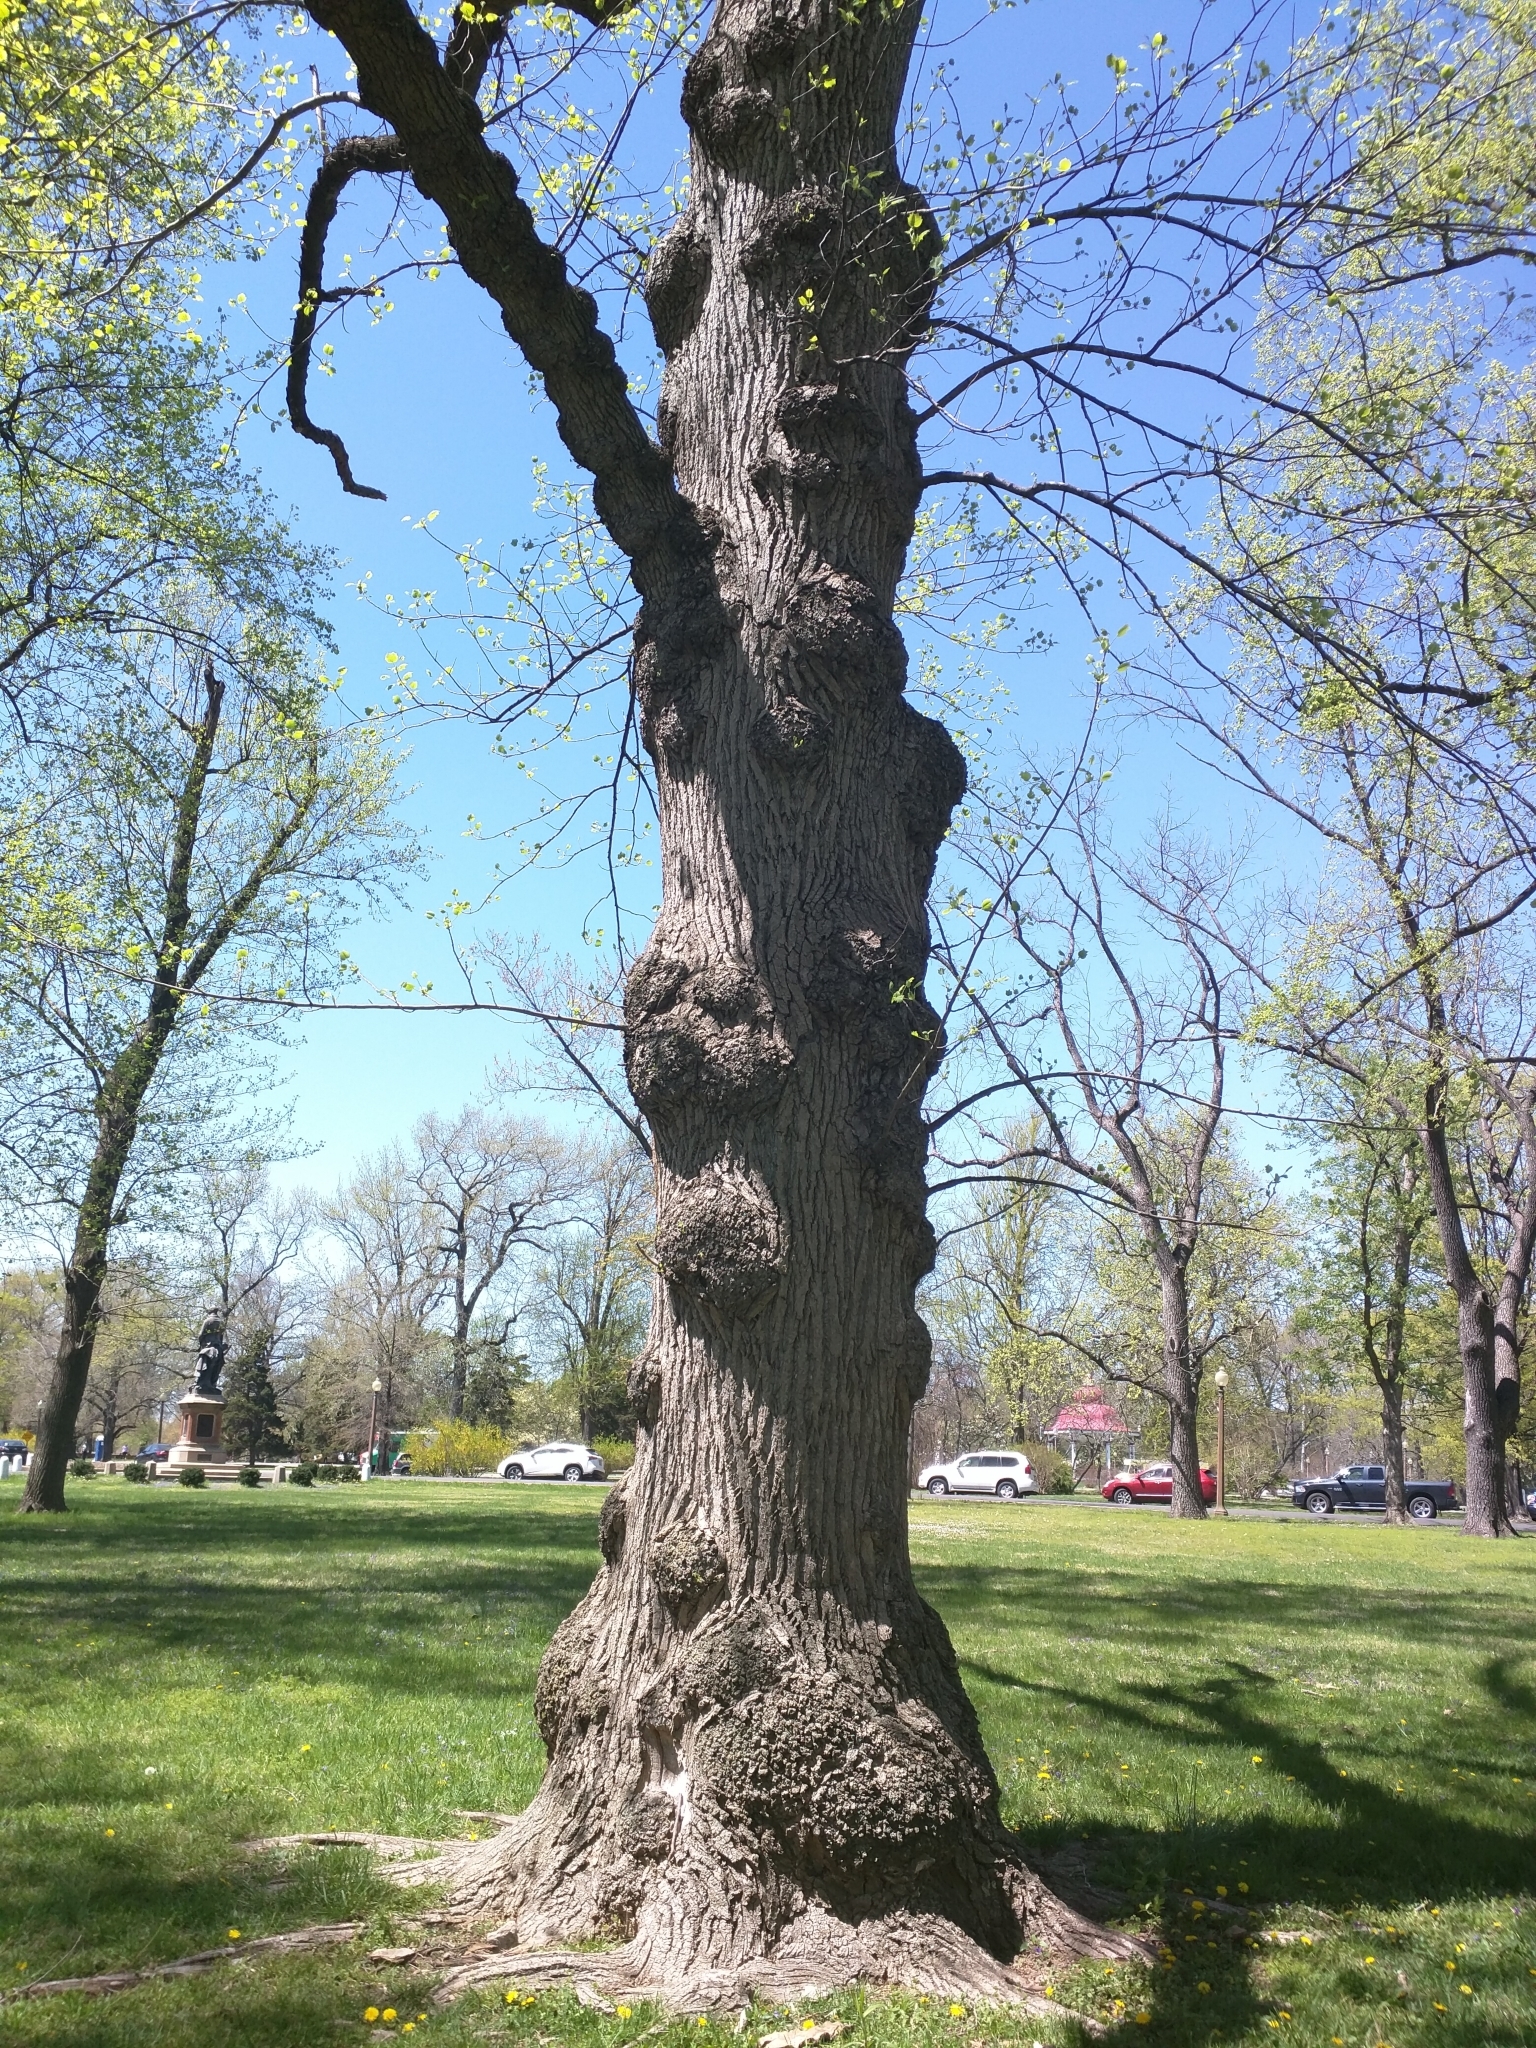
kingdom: Plantae
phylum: Tracheophyta
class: Magnoliopsida
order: Magnoliales
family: Magnoliaceae
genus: Liriodendron
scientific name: Liriodendron tulipifera
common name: Tulip tree
